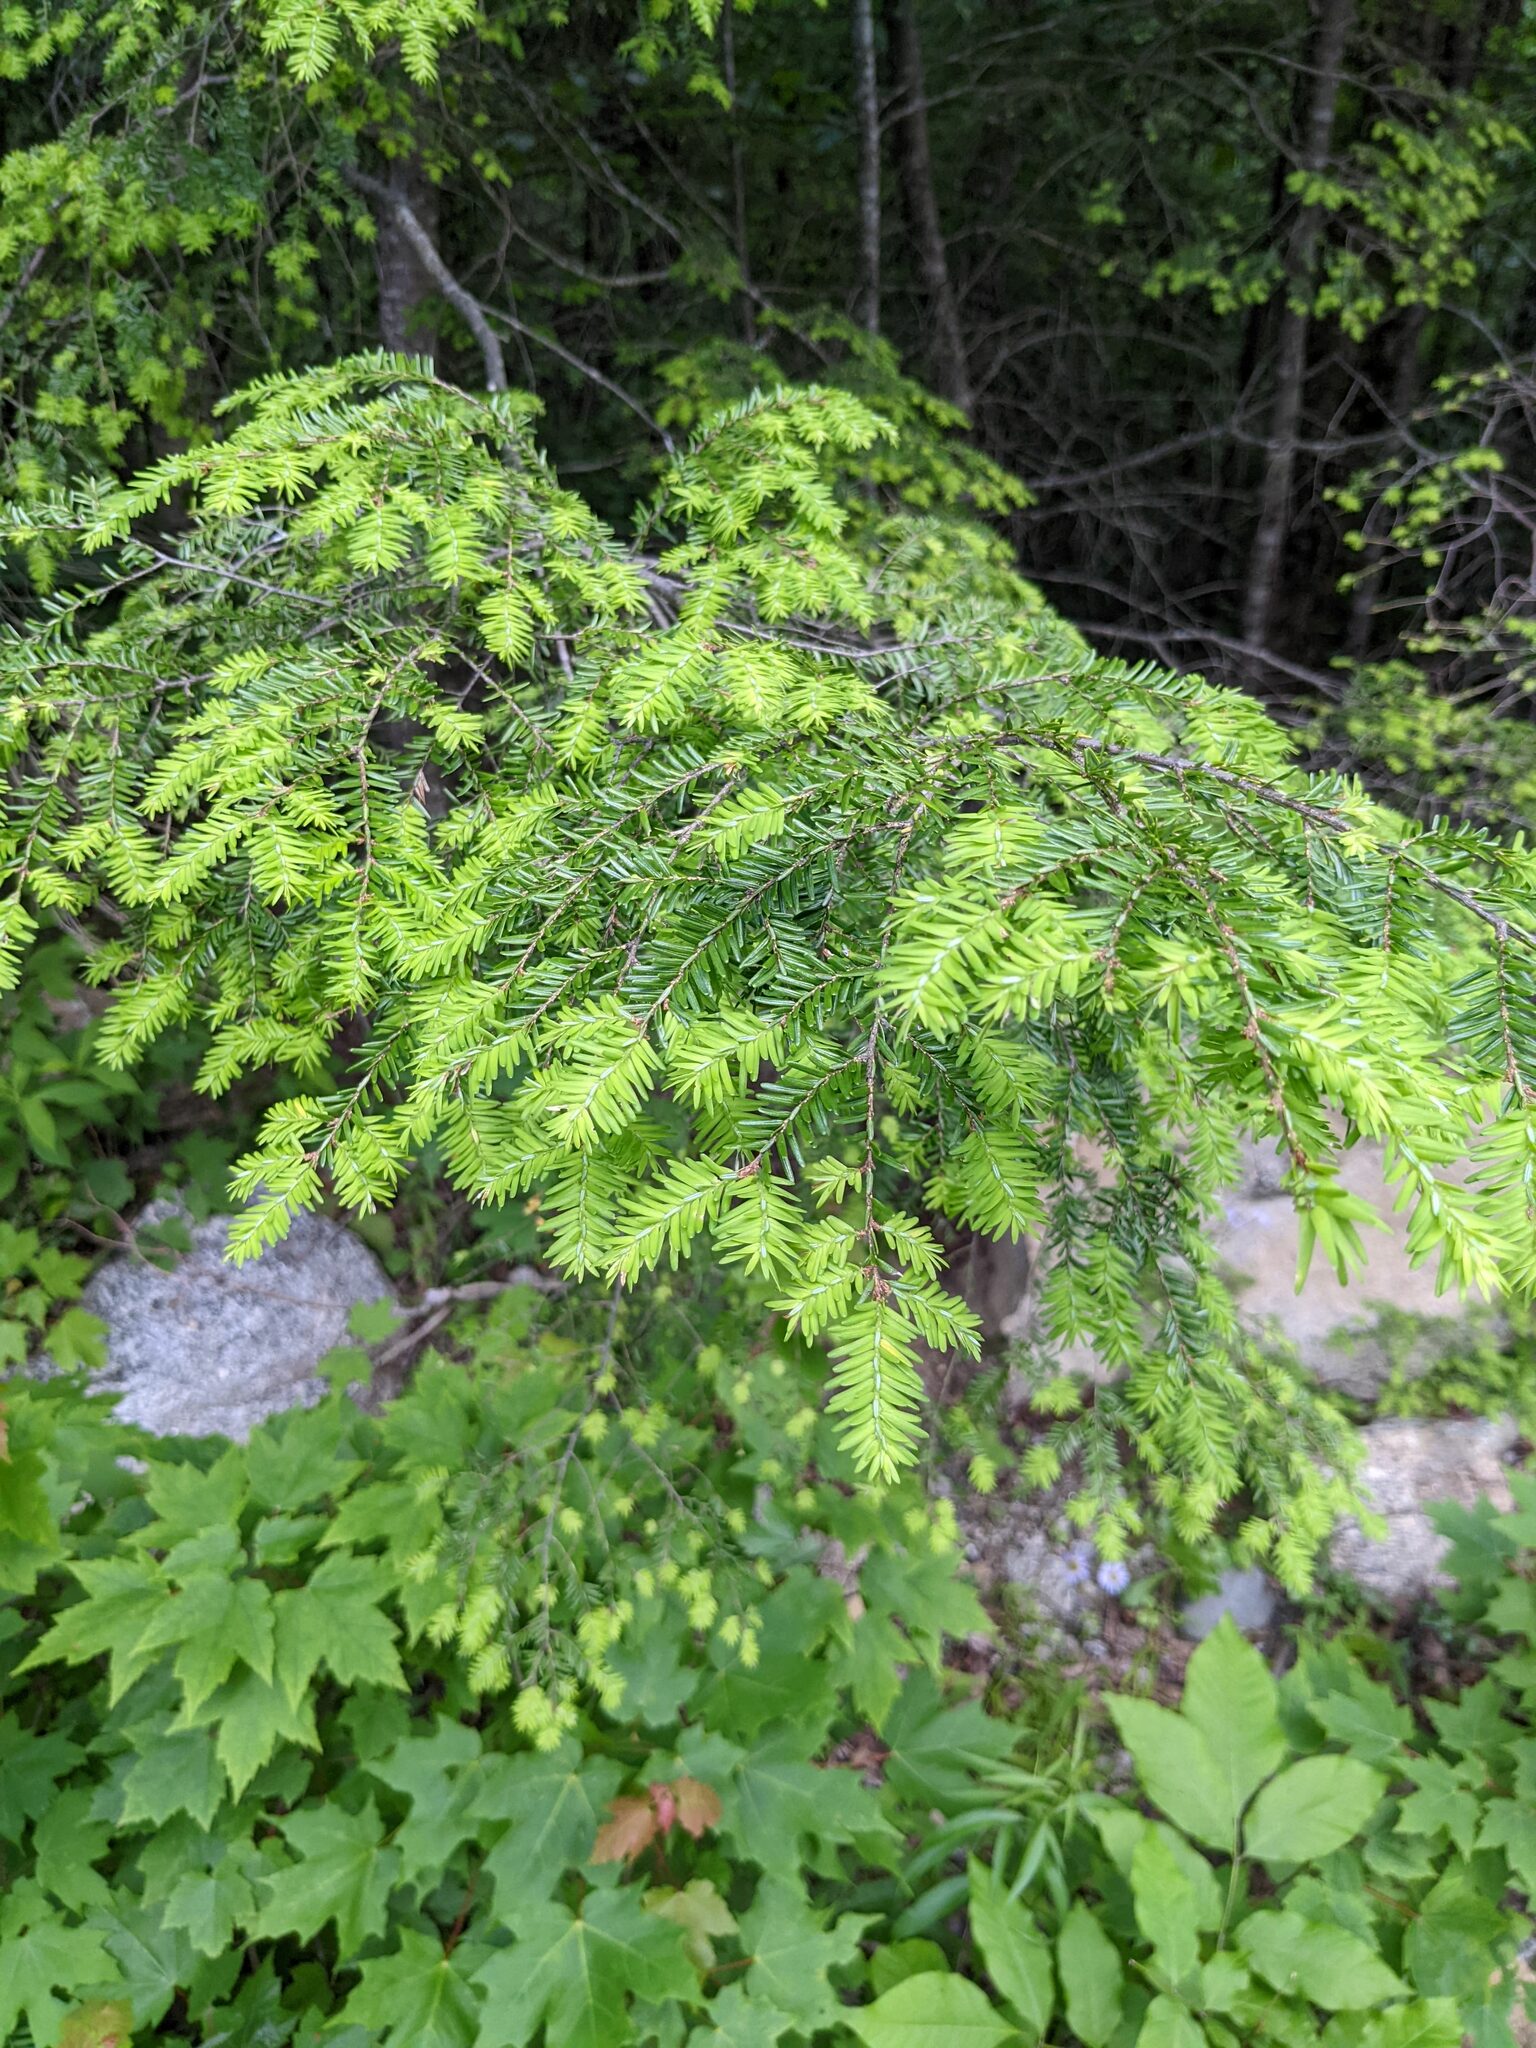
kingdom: Plantae
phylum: Tracheophyta
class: Pinopsida
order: Pinales
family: Pinaceae
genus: Tsuga
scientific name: Tsuga canadensis
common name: Eastern hemlock
